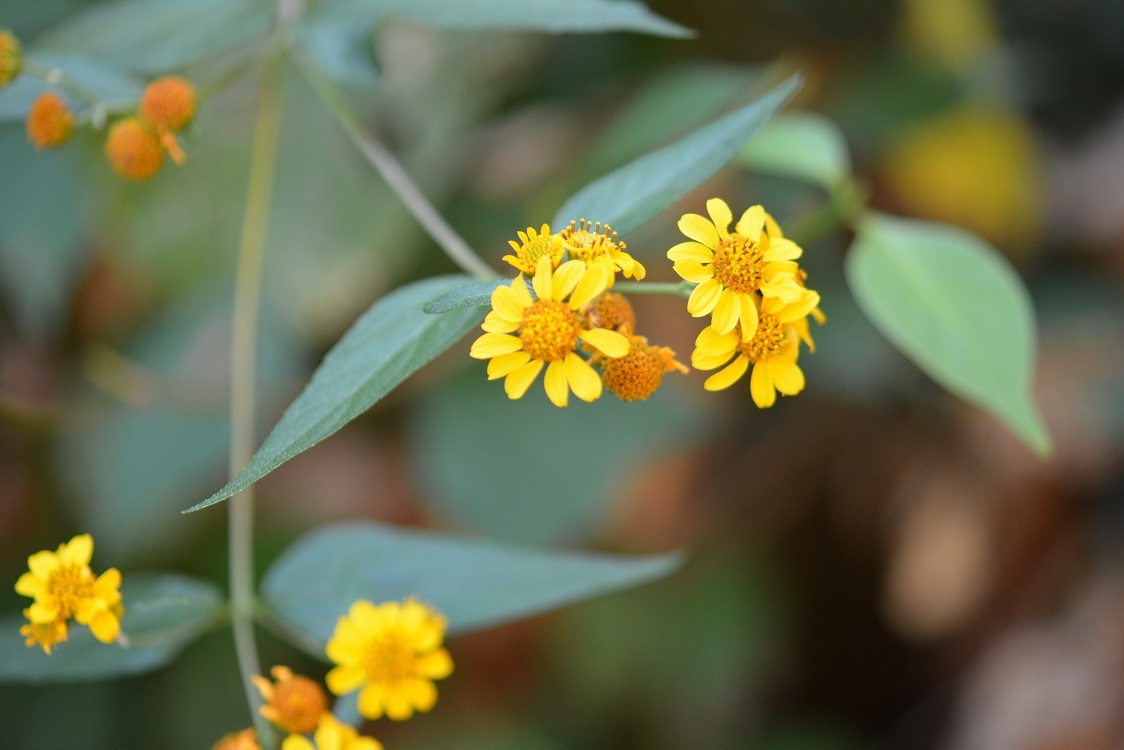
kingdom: Plantae
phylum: Tracheophyta
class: Magnoliopsida
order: Asterales
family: Asteraceae
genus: Calea
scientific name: Calea urticifolia
